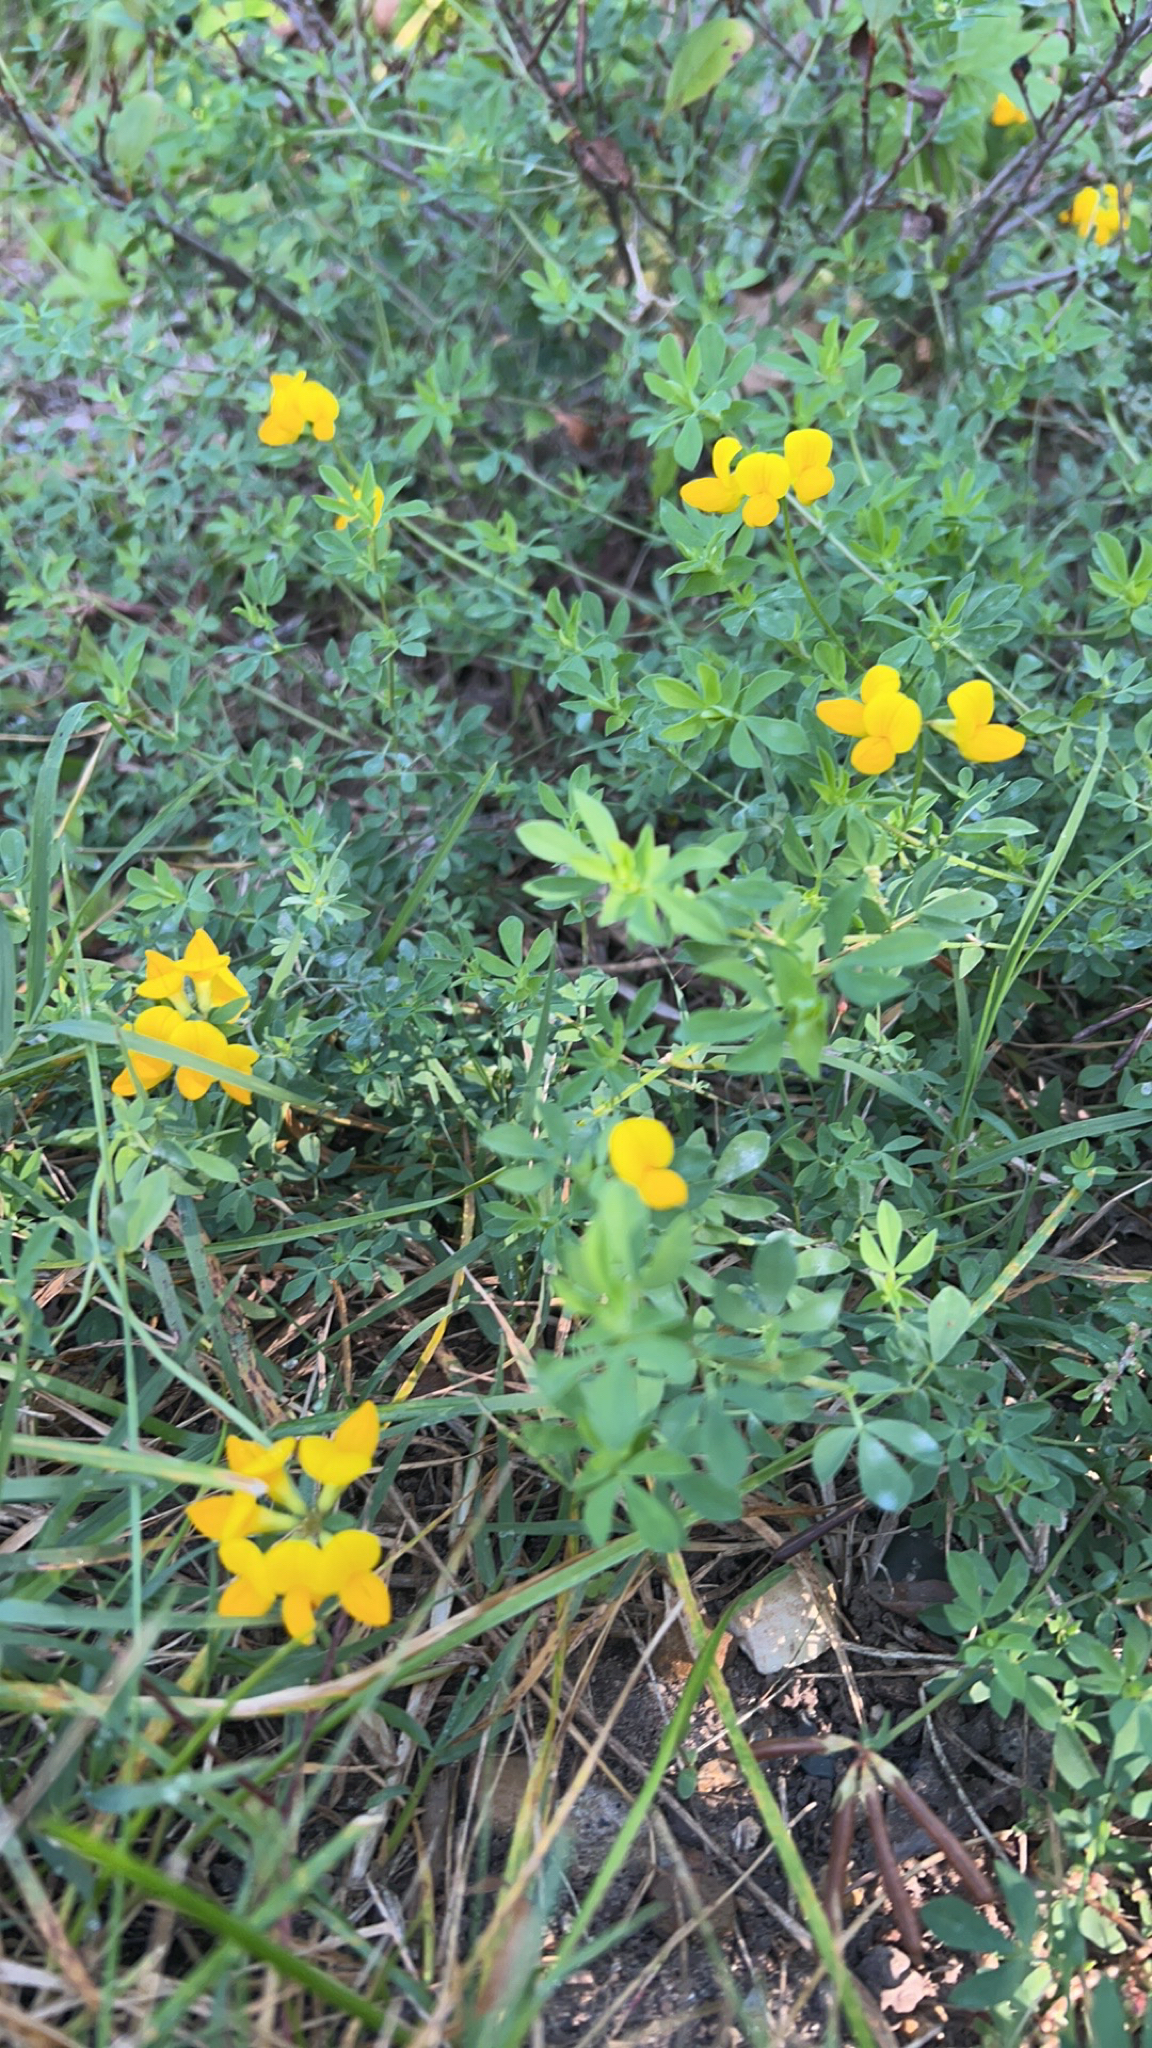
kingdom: Plantae
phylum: Tracheophyta
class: Magnoliopsida
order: Fabales
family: Fabaceae
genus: Lotus
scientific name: Lotus corniculatus
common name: Common bird's-foot-trefoil
